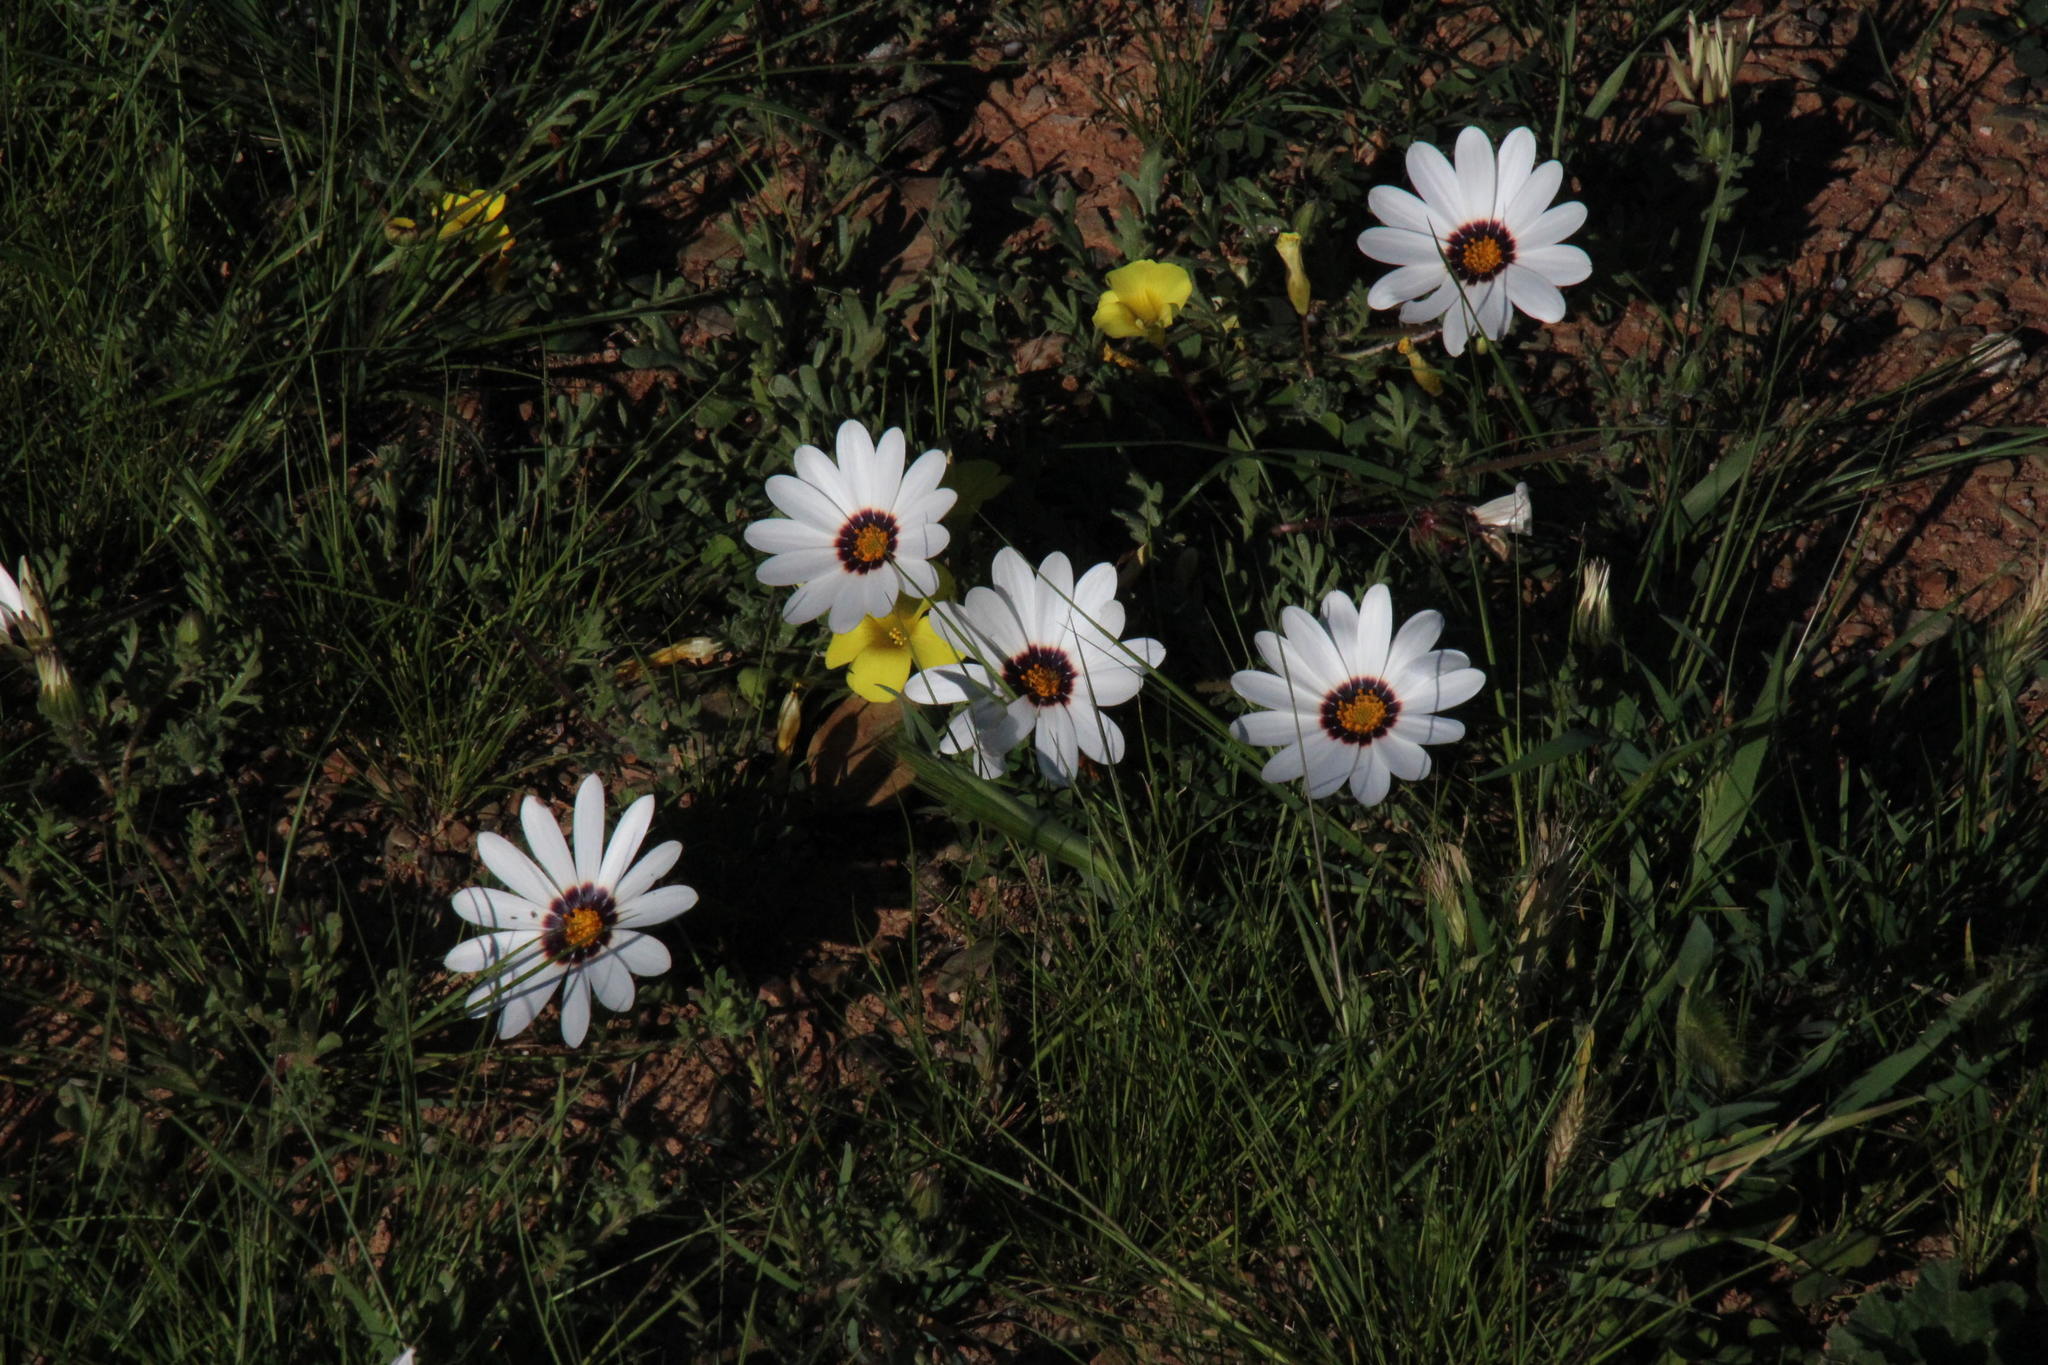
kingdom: Plantae
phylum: Tracheophyta
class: Magnoliopsida
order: Asterales
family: Asteraceae
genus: Dimorphotheca
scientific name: Dimorphotheca pinnata
